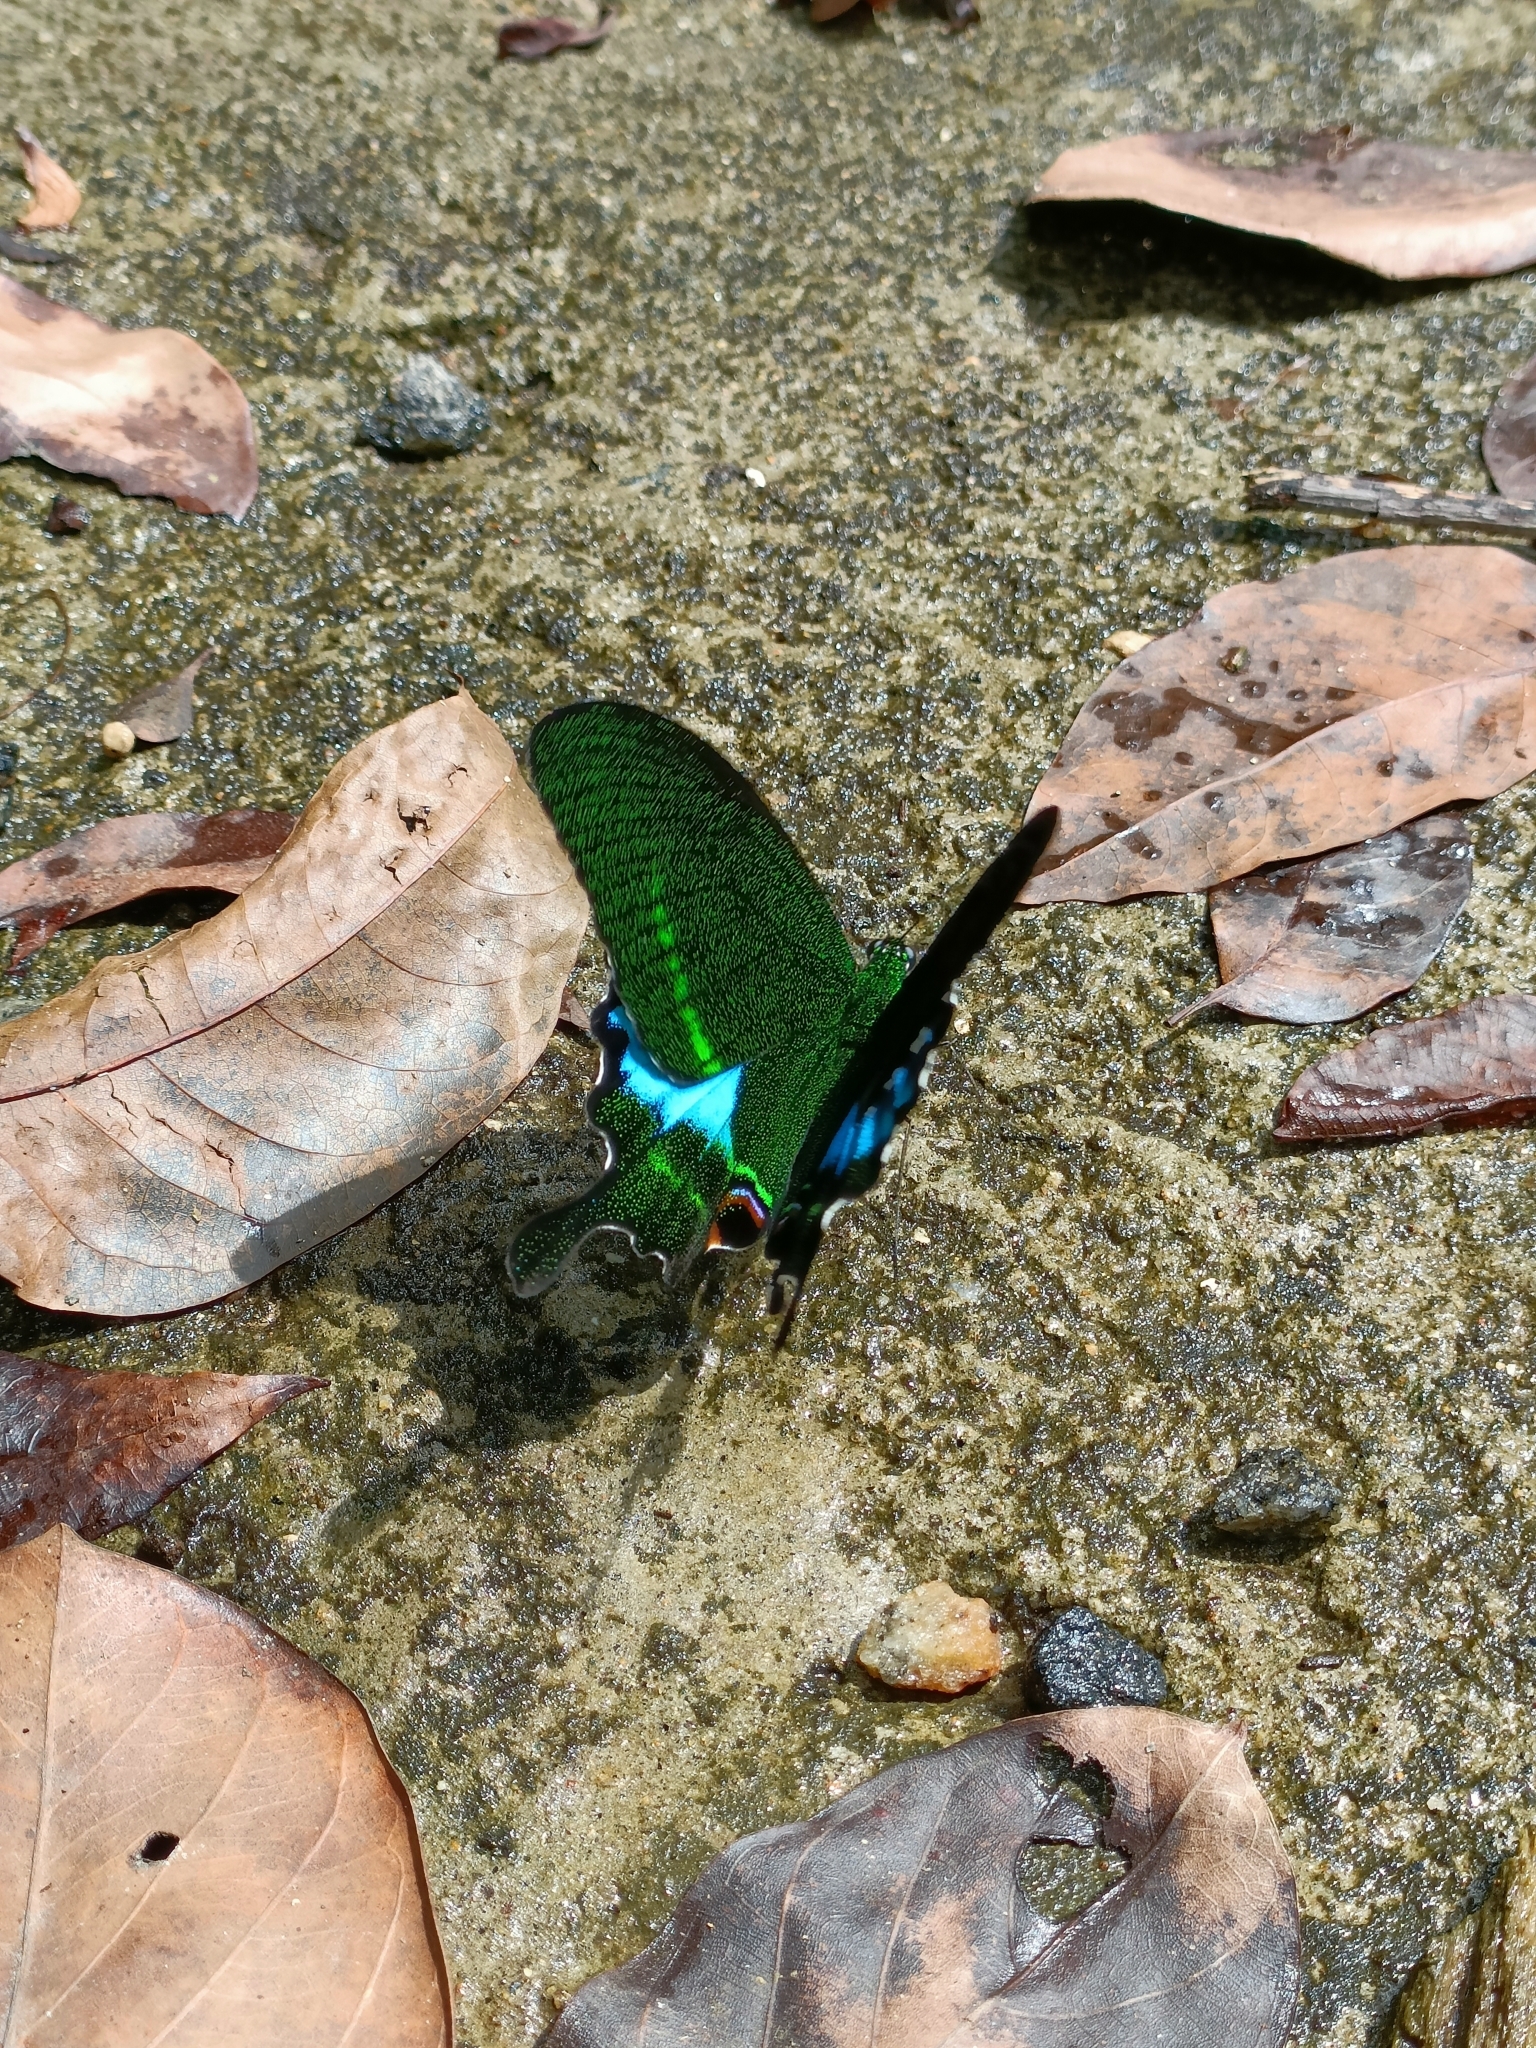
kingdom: Animalia
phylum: Arthropoda
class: Insecta
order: Lepidoptera
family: Papilionidae
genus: Papilio
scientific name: Papilio paris
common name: Paris peacock
